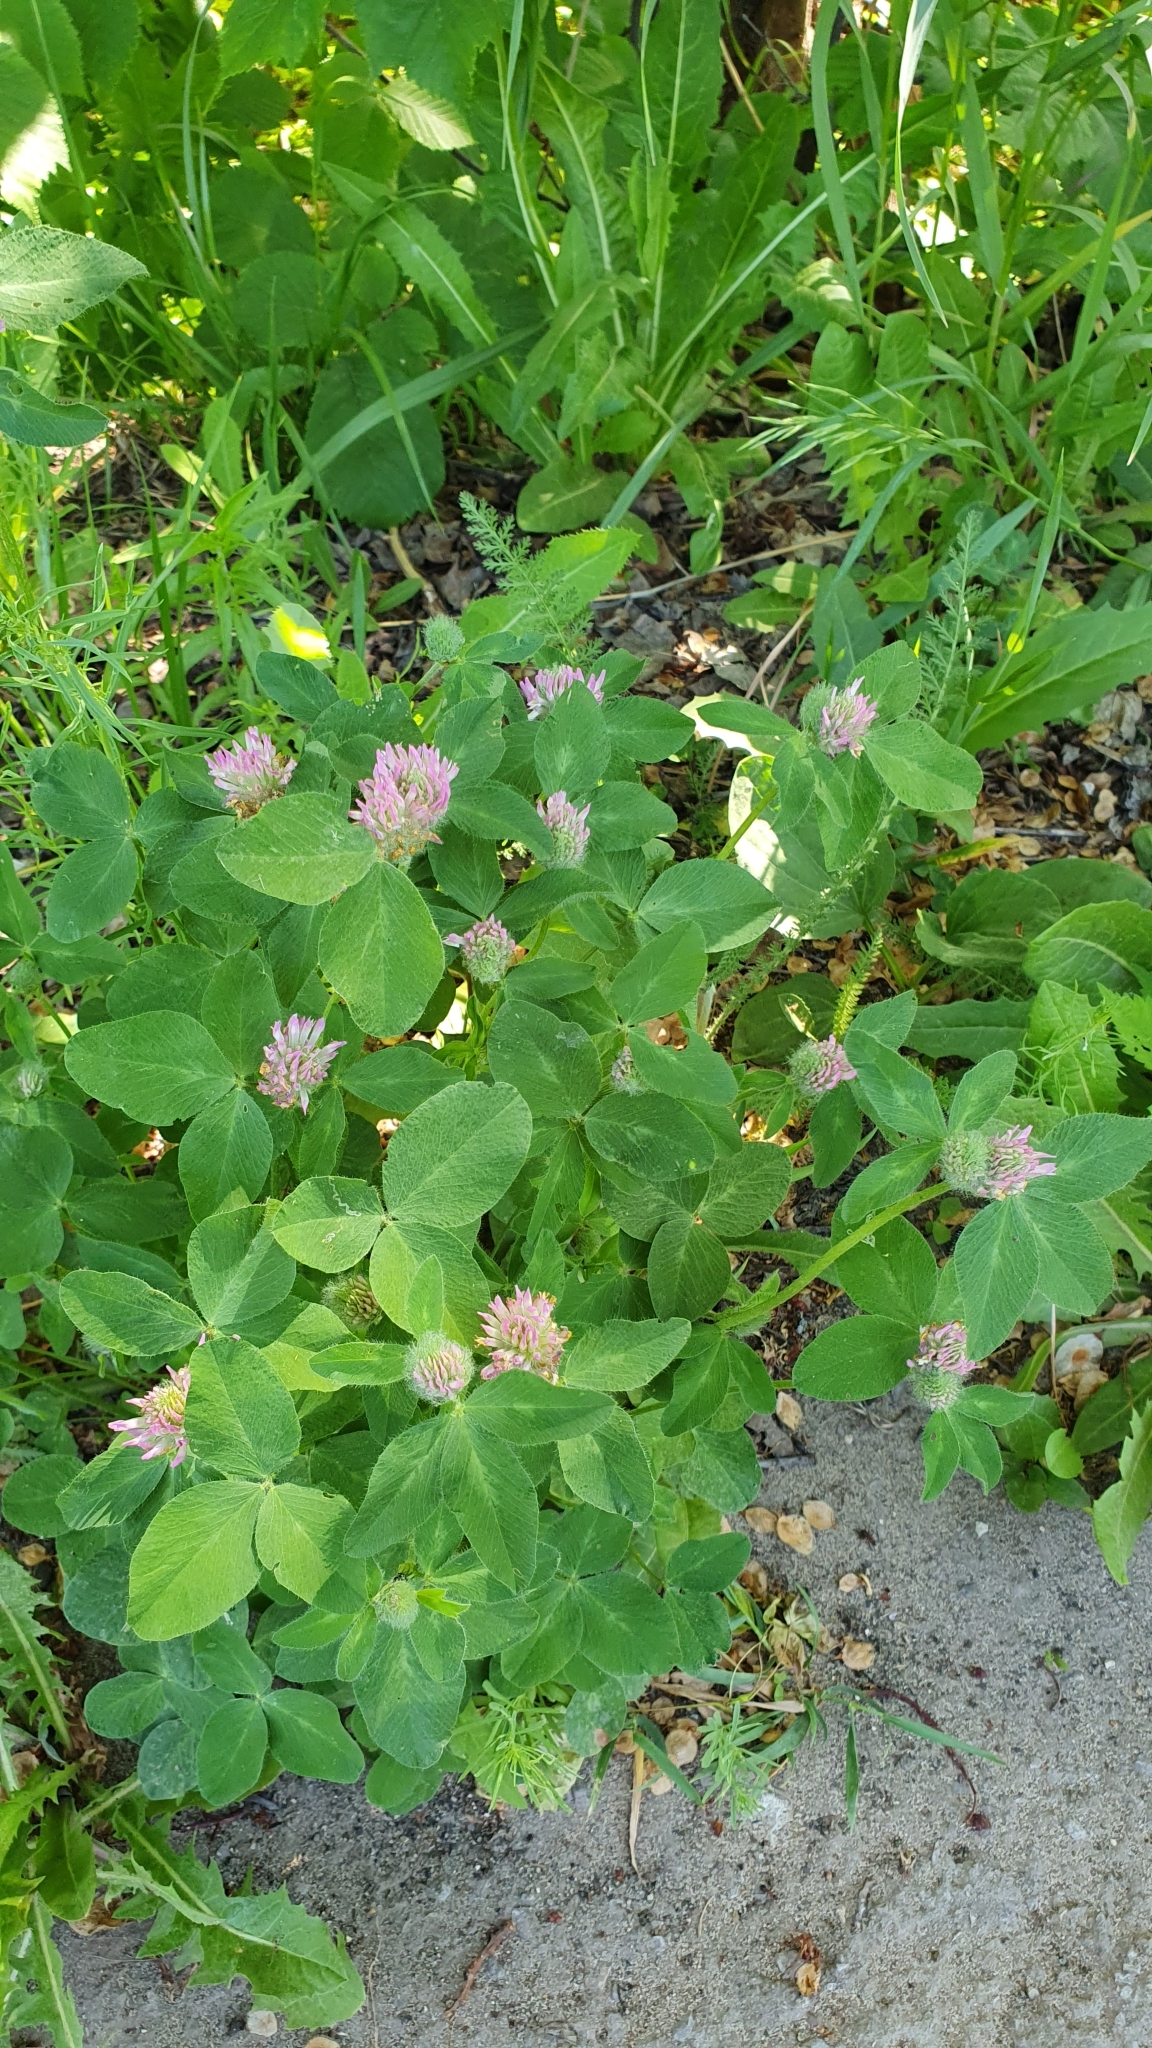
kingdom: Plantae
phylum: Tracheophyta
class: Magnoliopsida
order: Fabales
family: Fabaceae
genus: Trifolium
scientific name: Trifolium pratense
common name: Red clover
